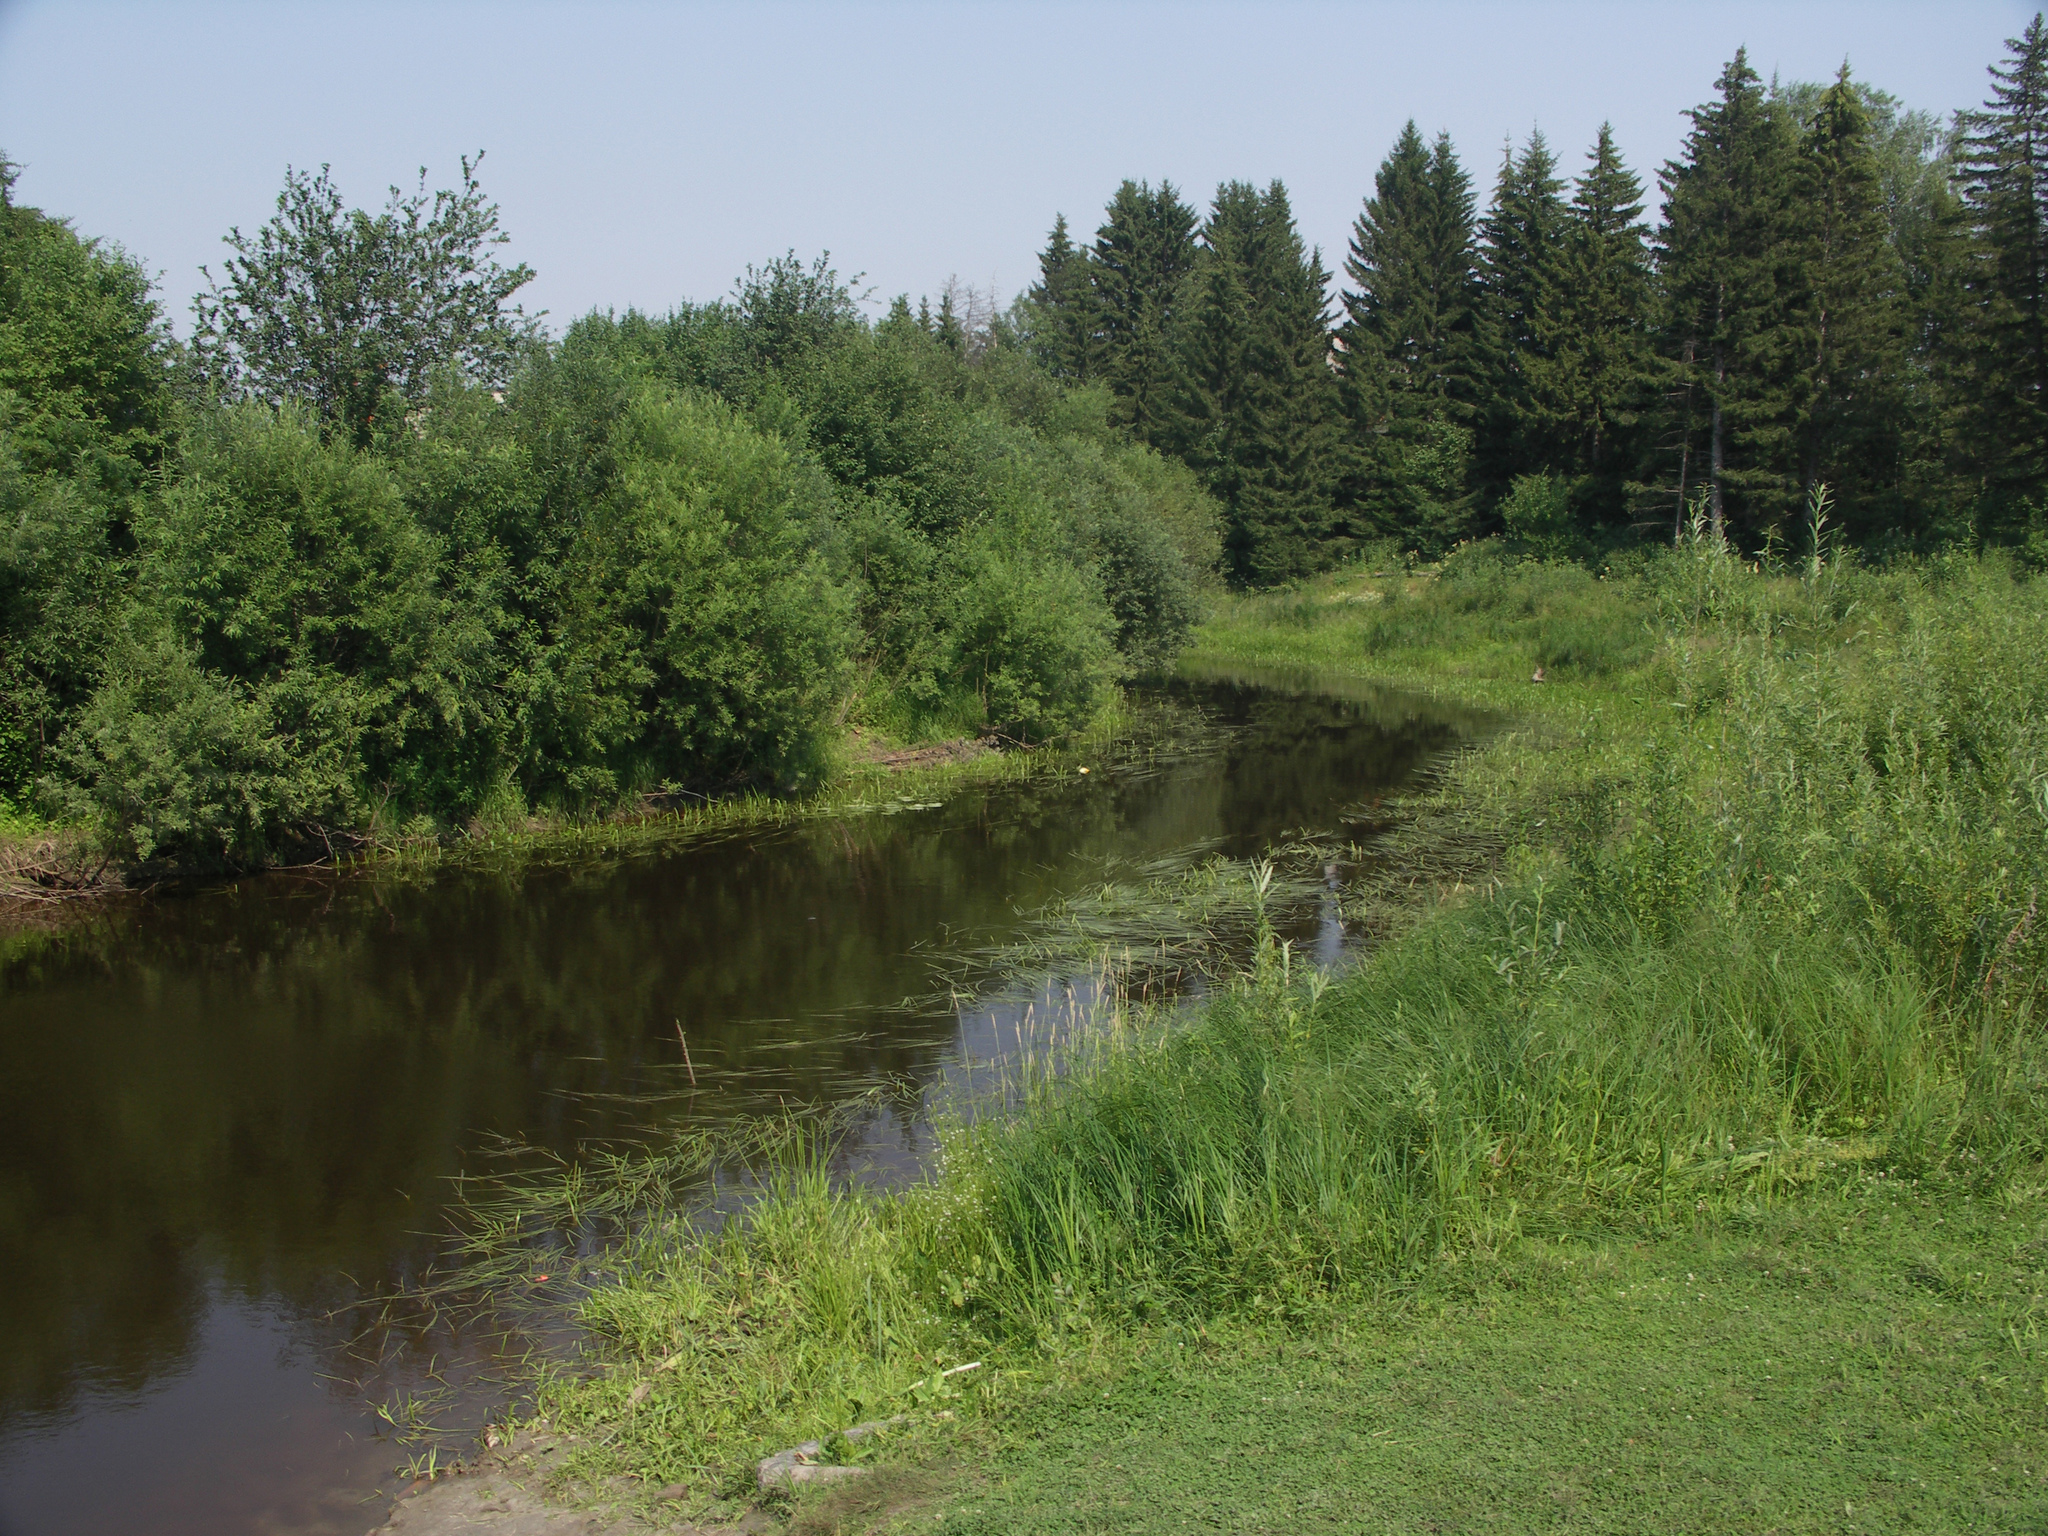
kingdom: Plantae
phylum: Tracheophyta
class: Pinopsida
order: Pinales
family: Pinaceae
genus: Picea
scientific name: Picea obovata
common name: Siberian spruce
